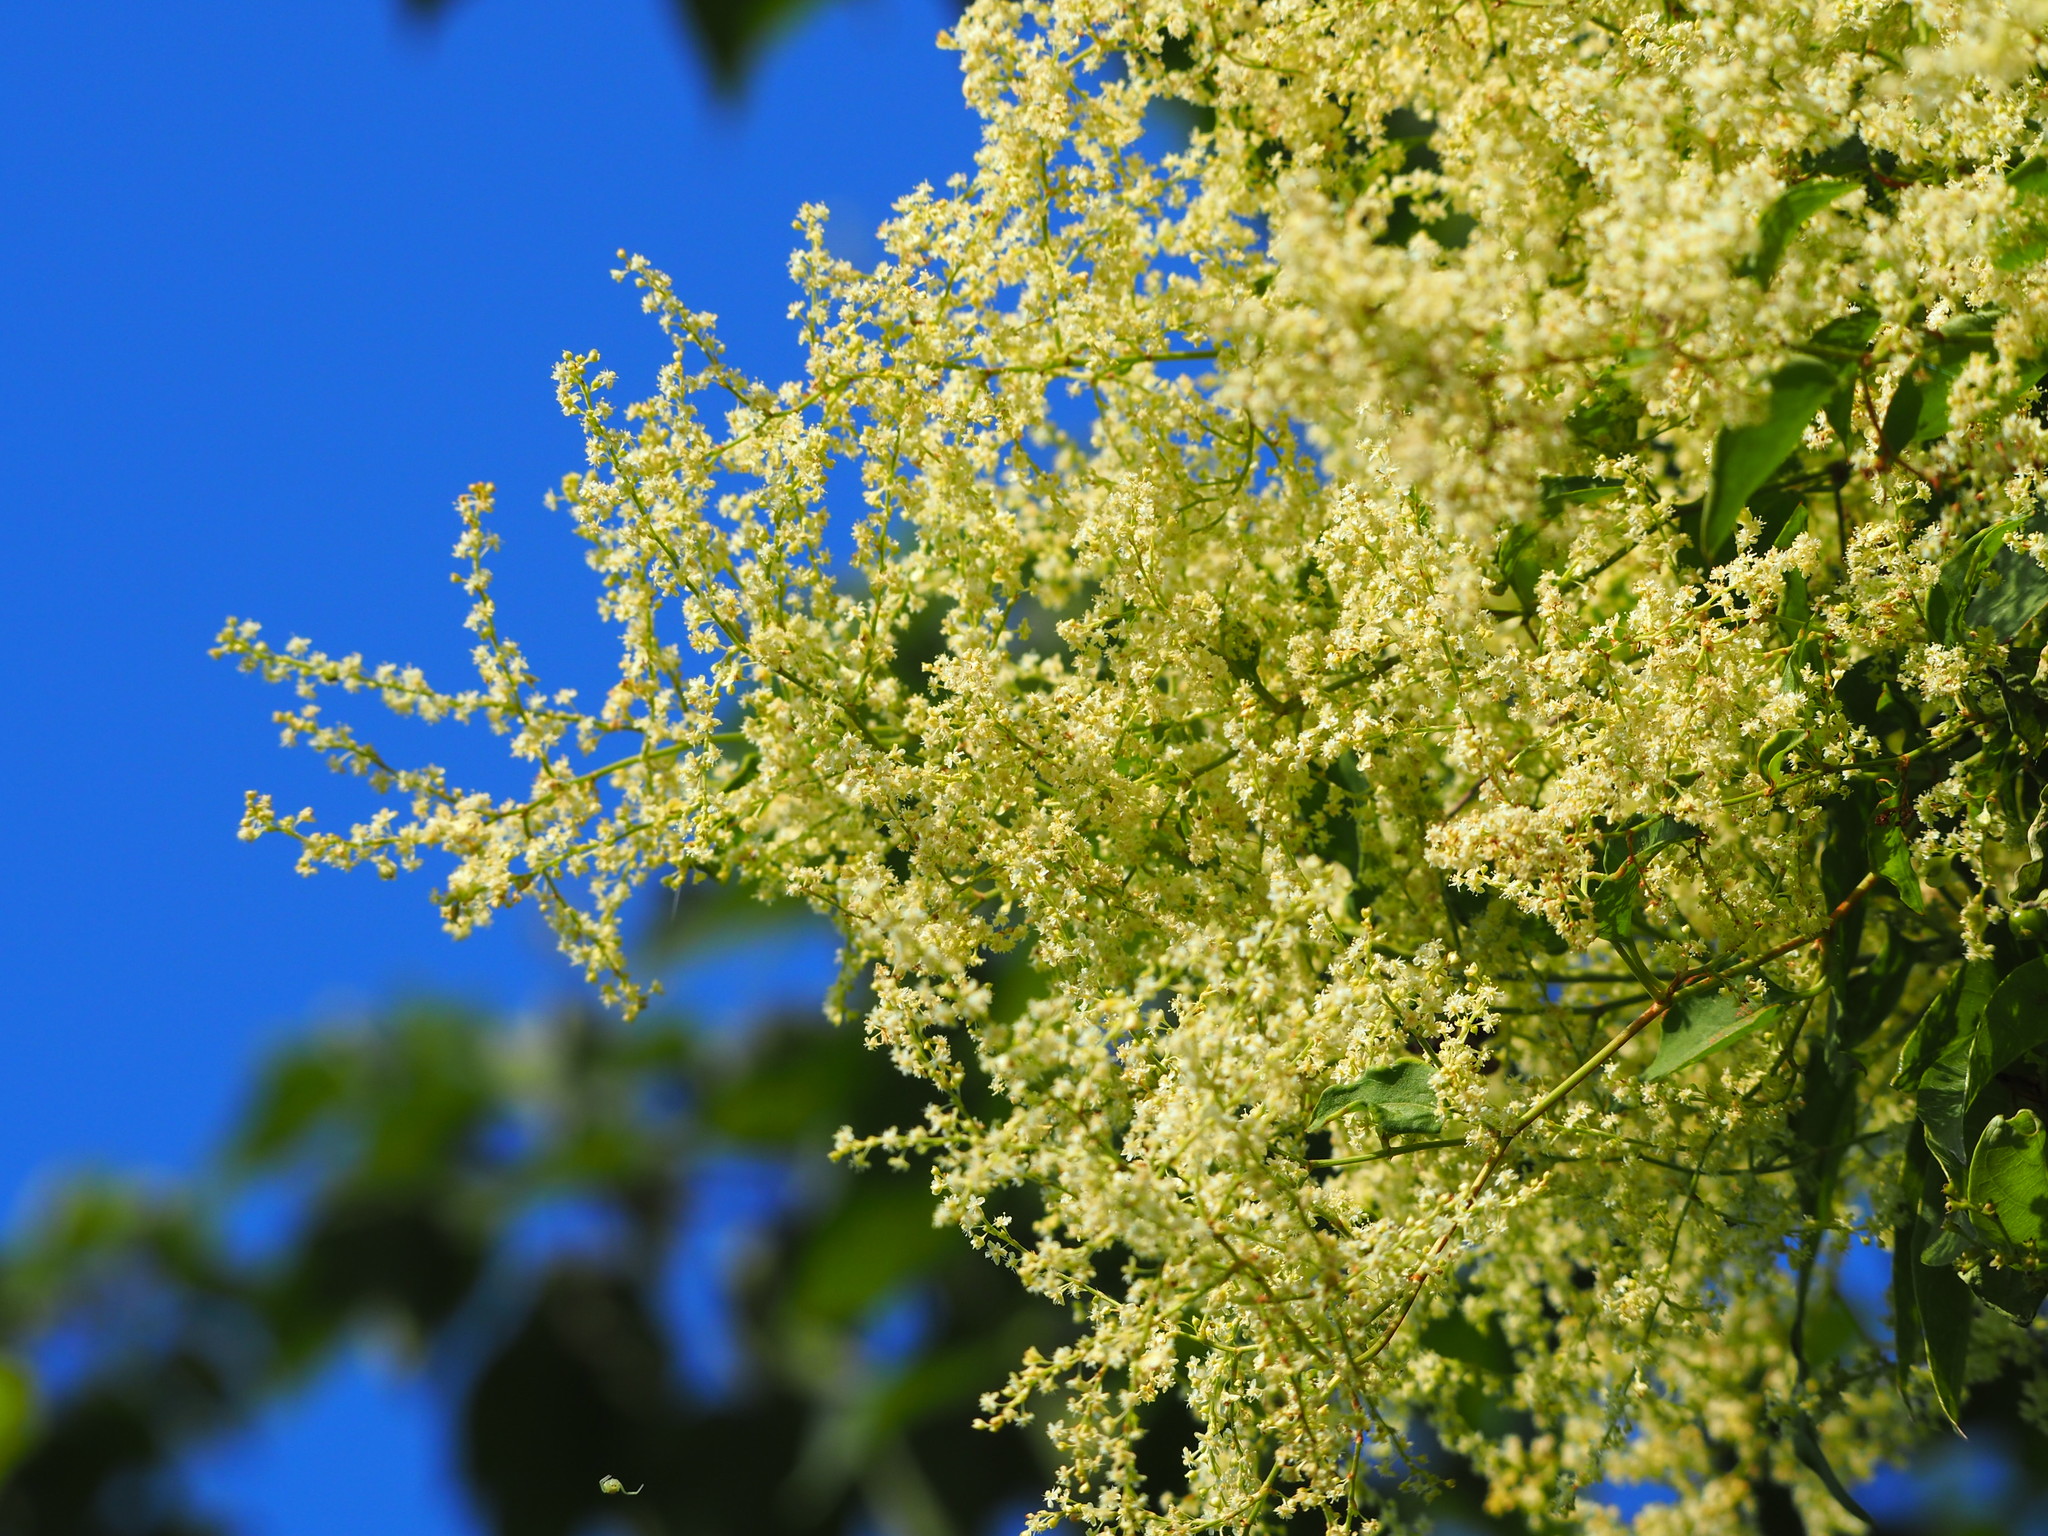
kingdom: Plantae
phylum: Tracheophyta
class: Magnoliopsida
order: Caryophyllales
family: Polygonaceae
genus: Reynoutria
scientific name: Reynoutria multiflora
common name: Chinese fleeceflower
